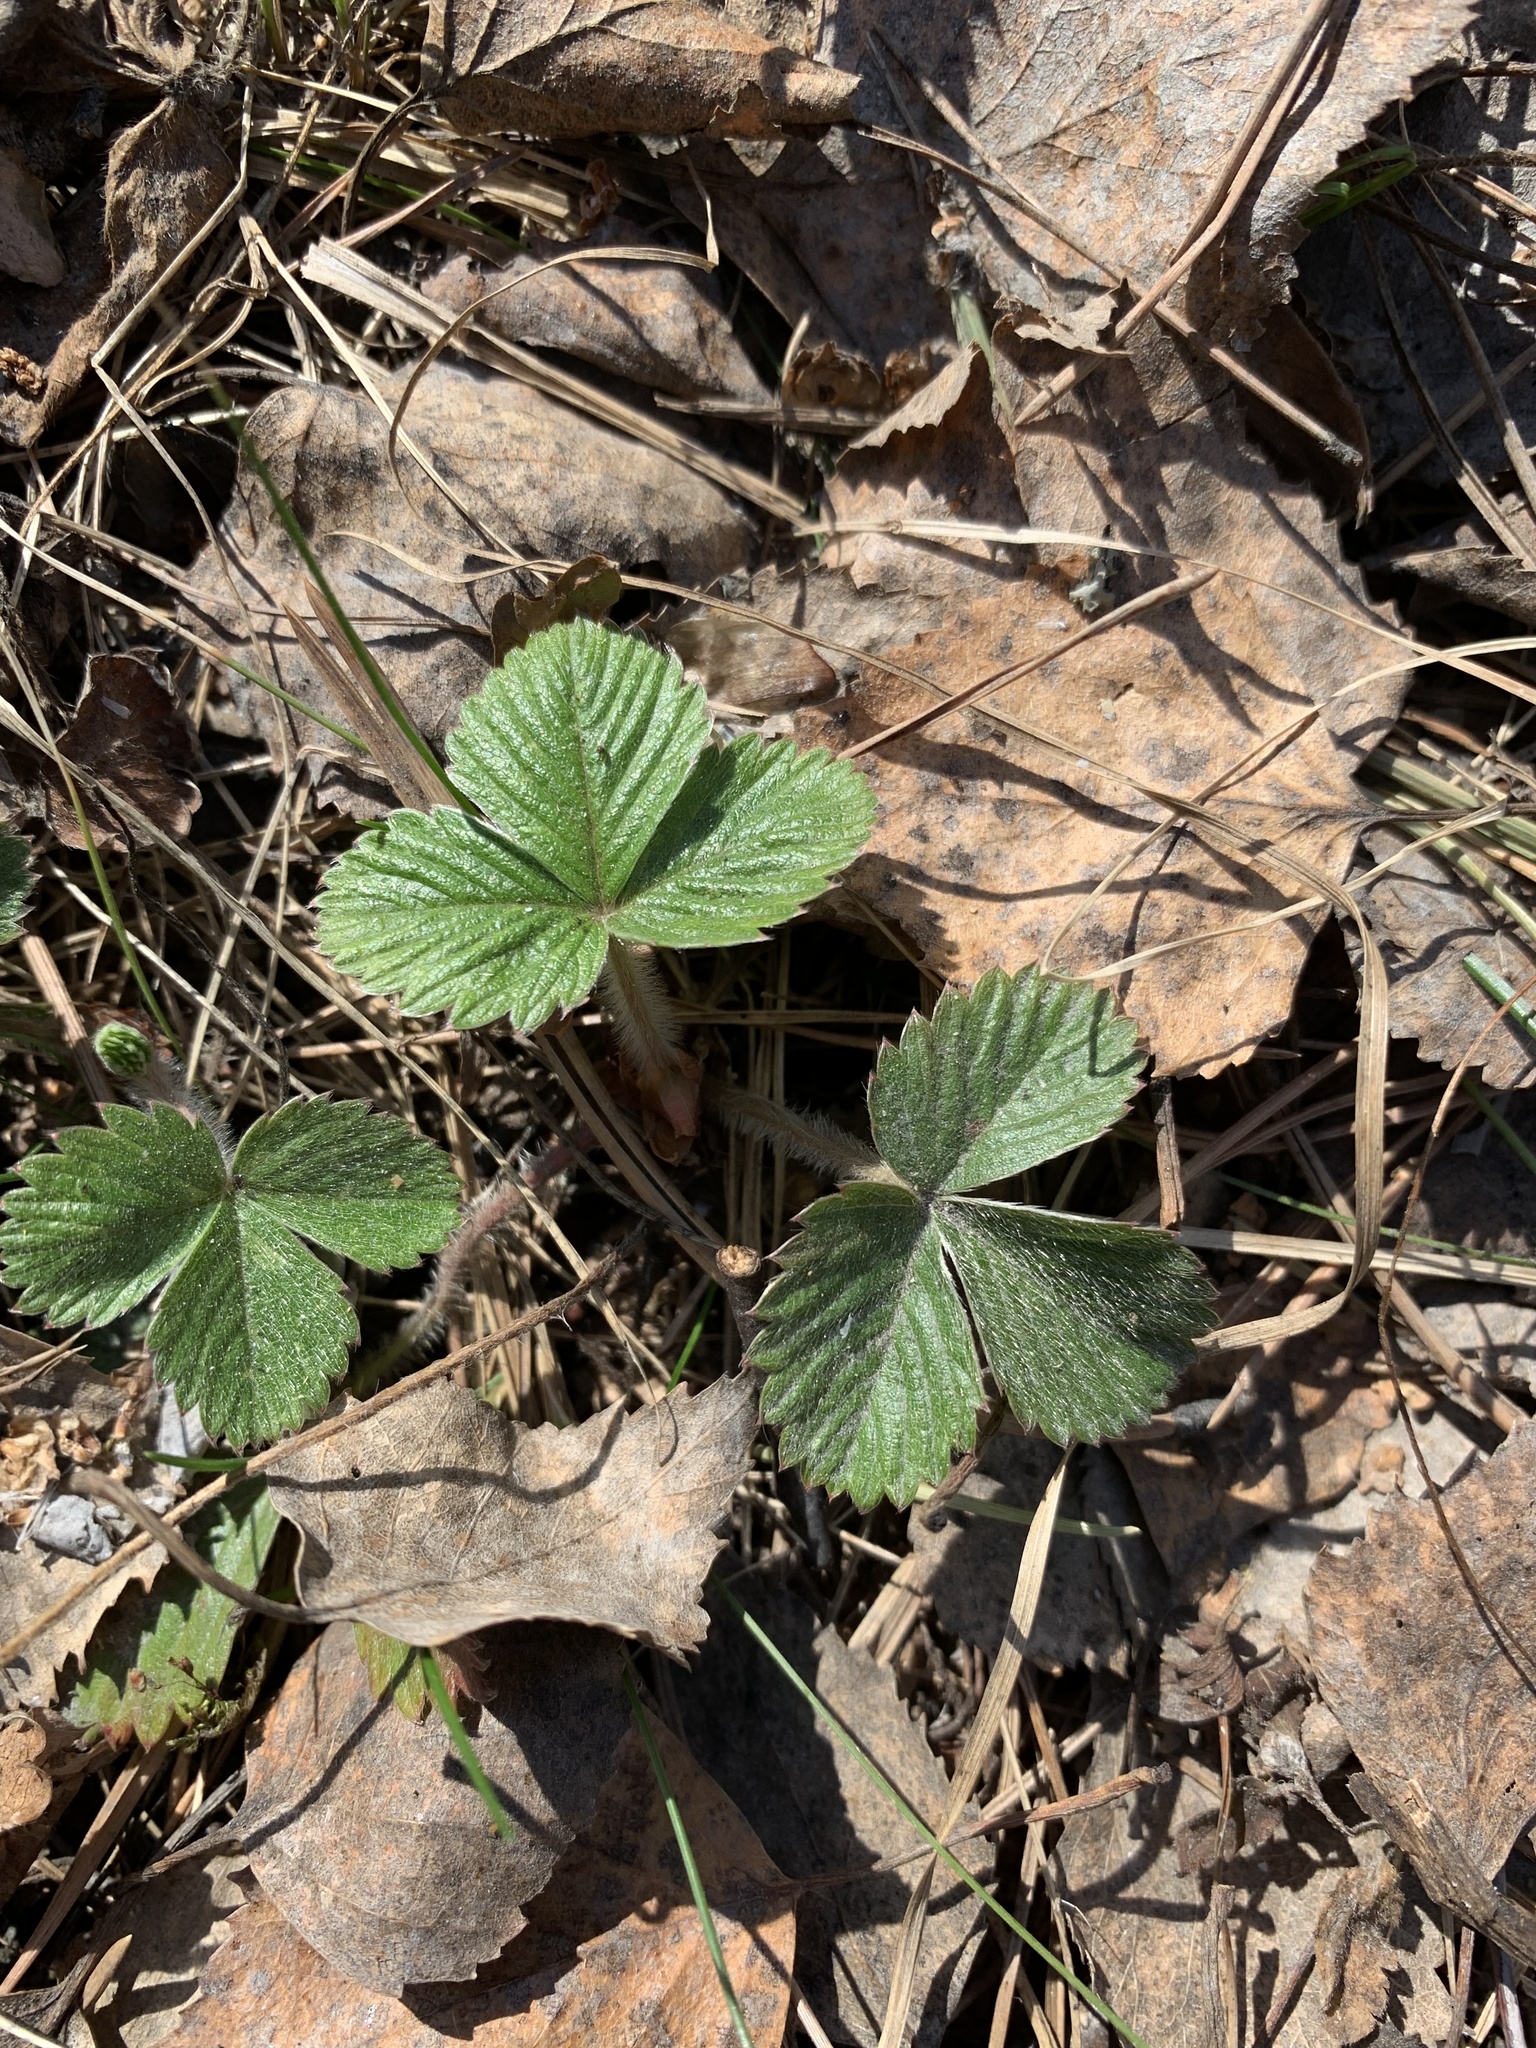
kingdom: Plantae
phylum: Tracheophyta
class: Magnoliopsida
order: Rosales
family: Rosaceae
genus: Fragaria
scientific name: Fragaria vesca
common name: Wild strawberry
